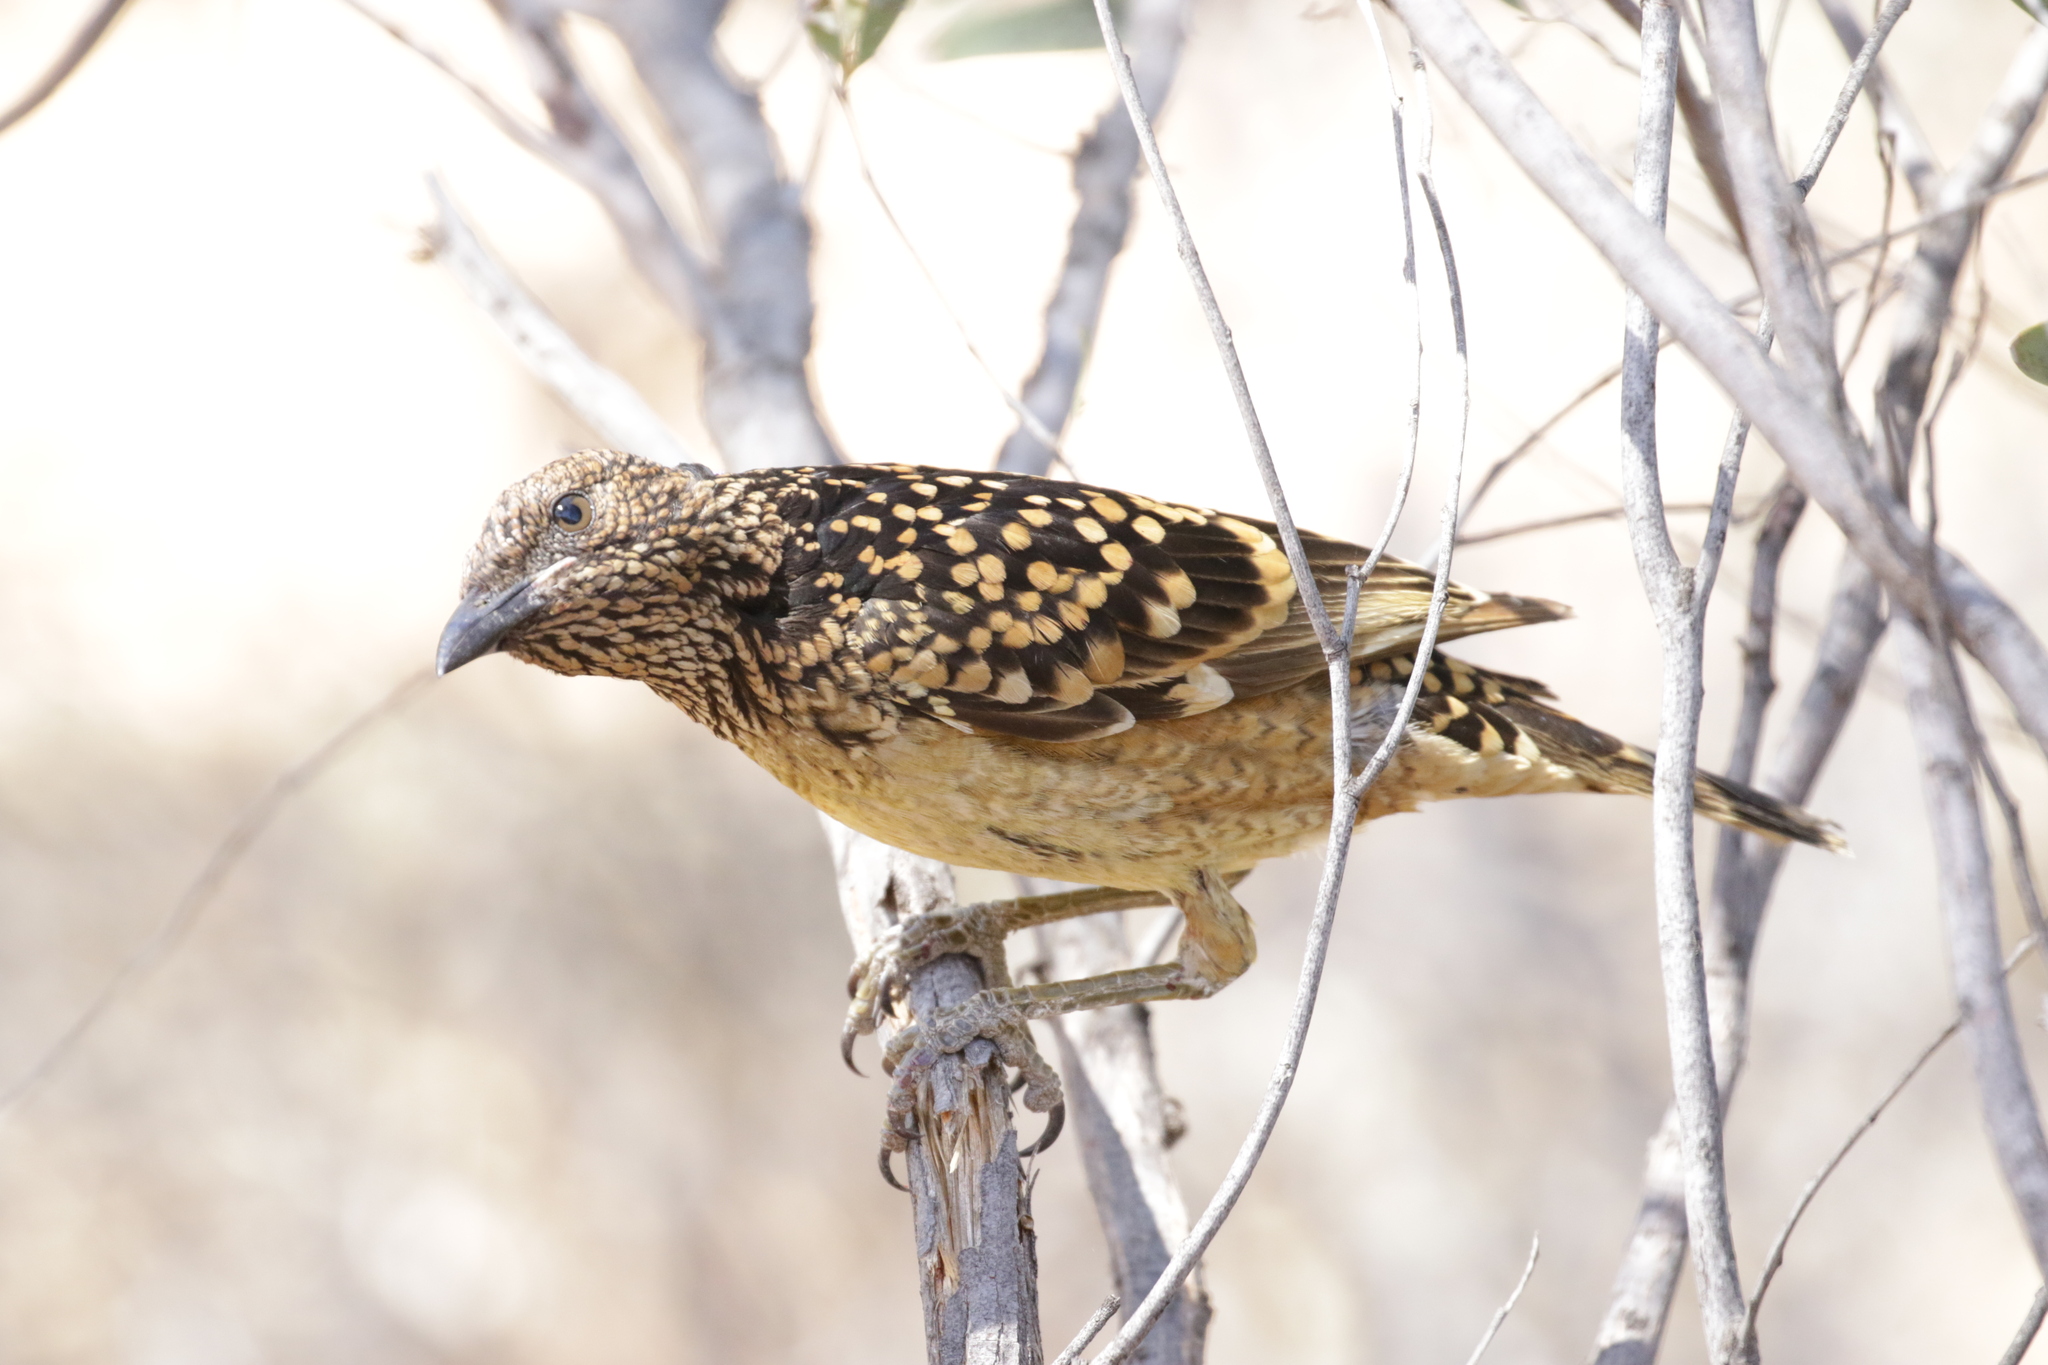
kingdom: Animalia
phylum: Chordata
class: Aves
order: Passeriformes
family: Ptilonorhynchidae
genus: Chlamydera
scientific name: Chlamydera guttata
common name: Western bowerbird
